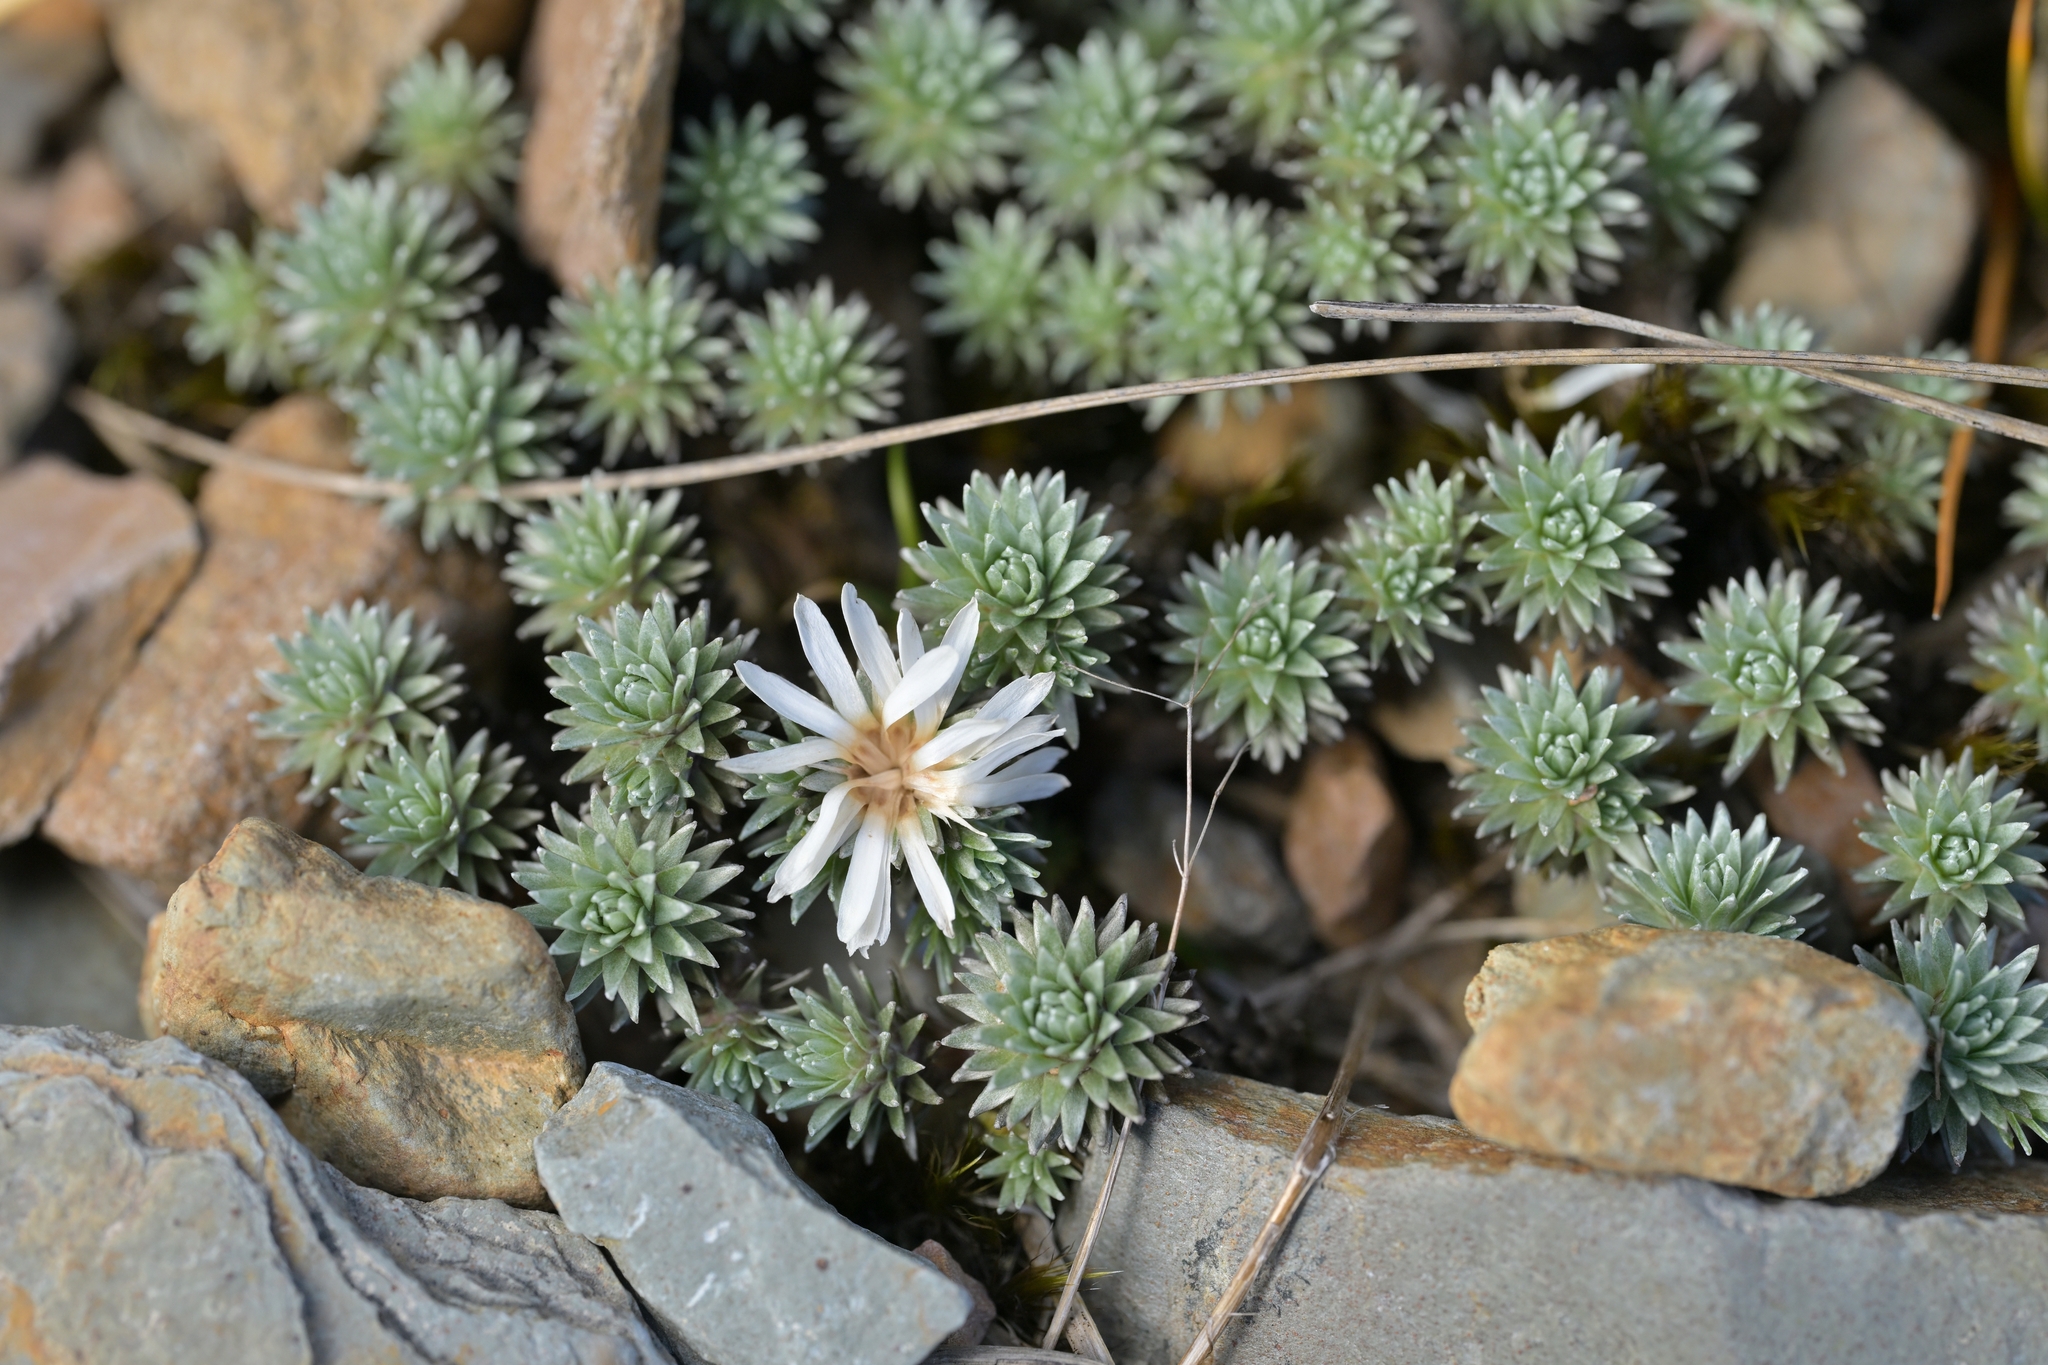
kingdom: Plantae
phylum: Tracheophyta
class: Magnoliopsida
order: Asterales
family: Asteraceae
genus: Raoulia
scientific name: Raoulia grandiflora
